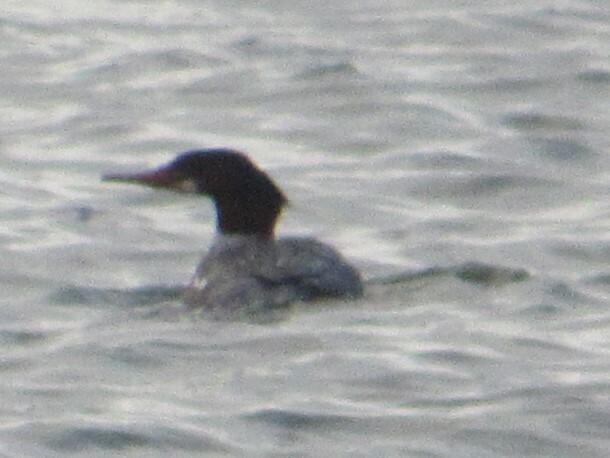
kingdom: Animalia
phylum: Chordata
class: Aves
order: Anseriformes
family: Anatidae
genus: Mergus
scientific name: Mergus merganser
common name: Common merganser
